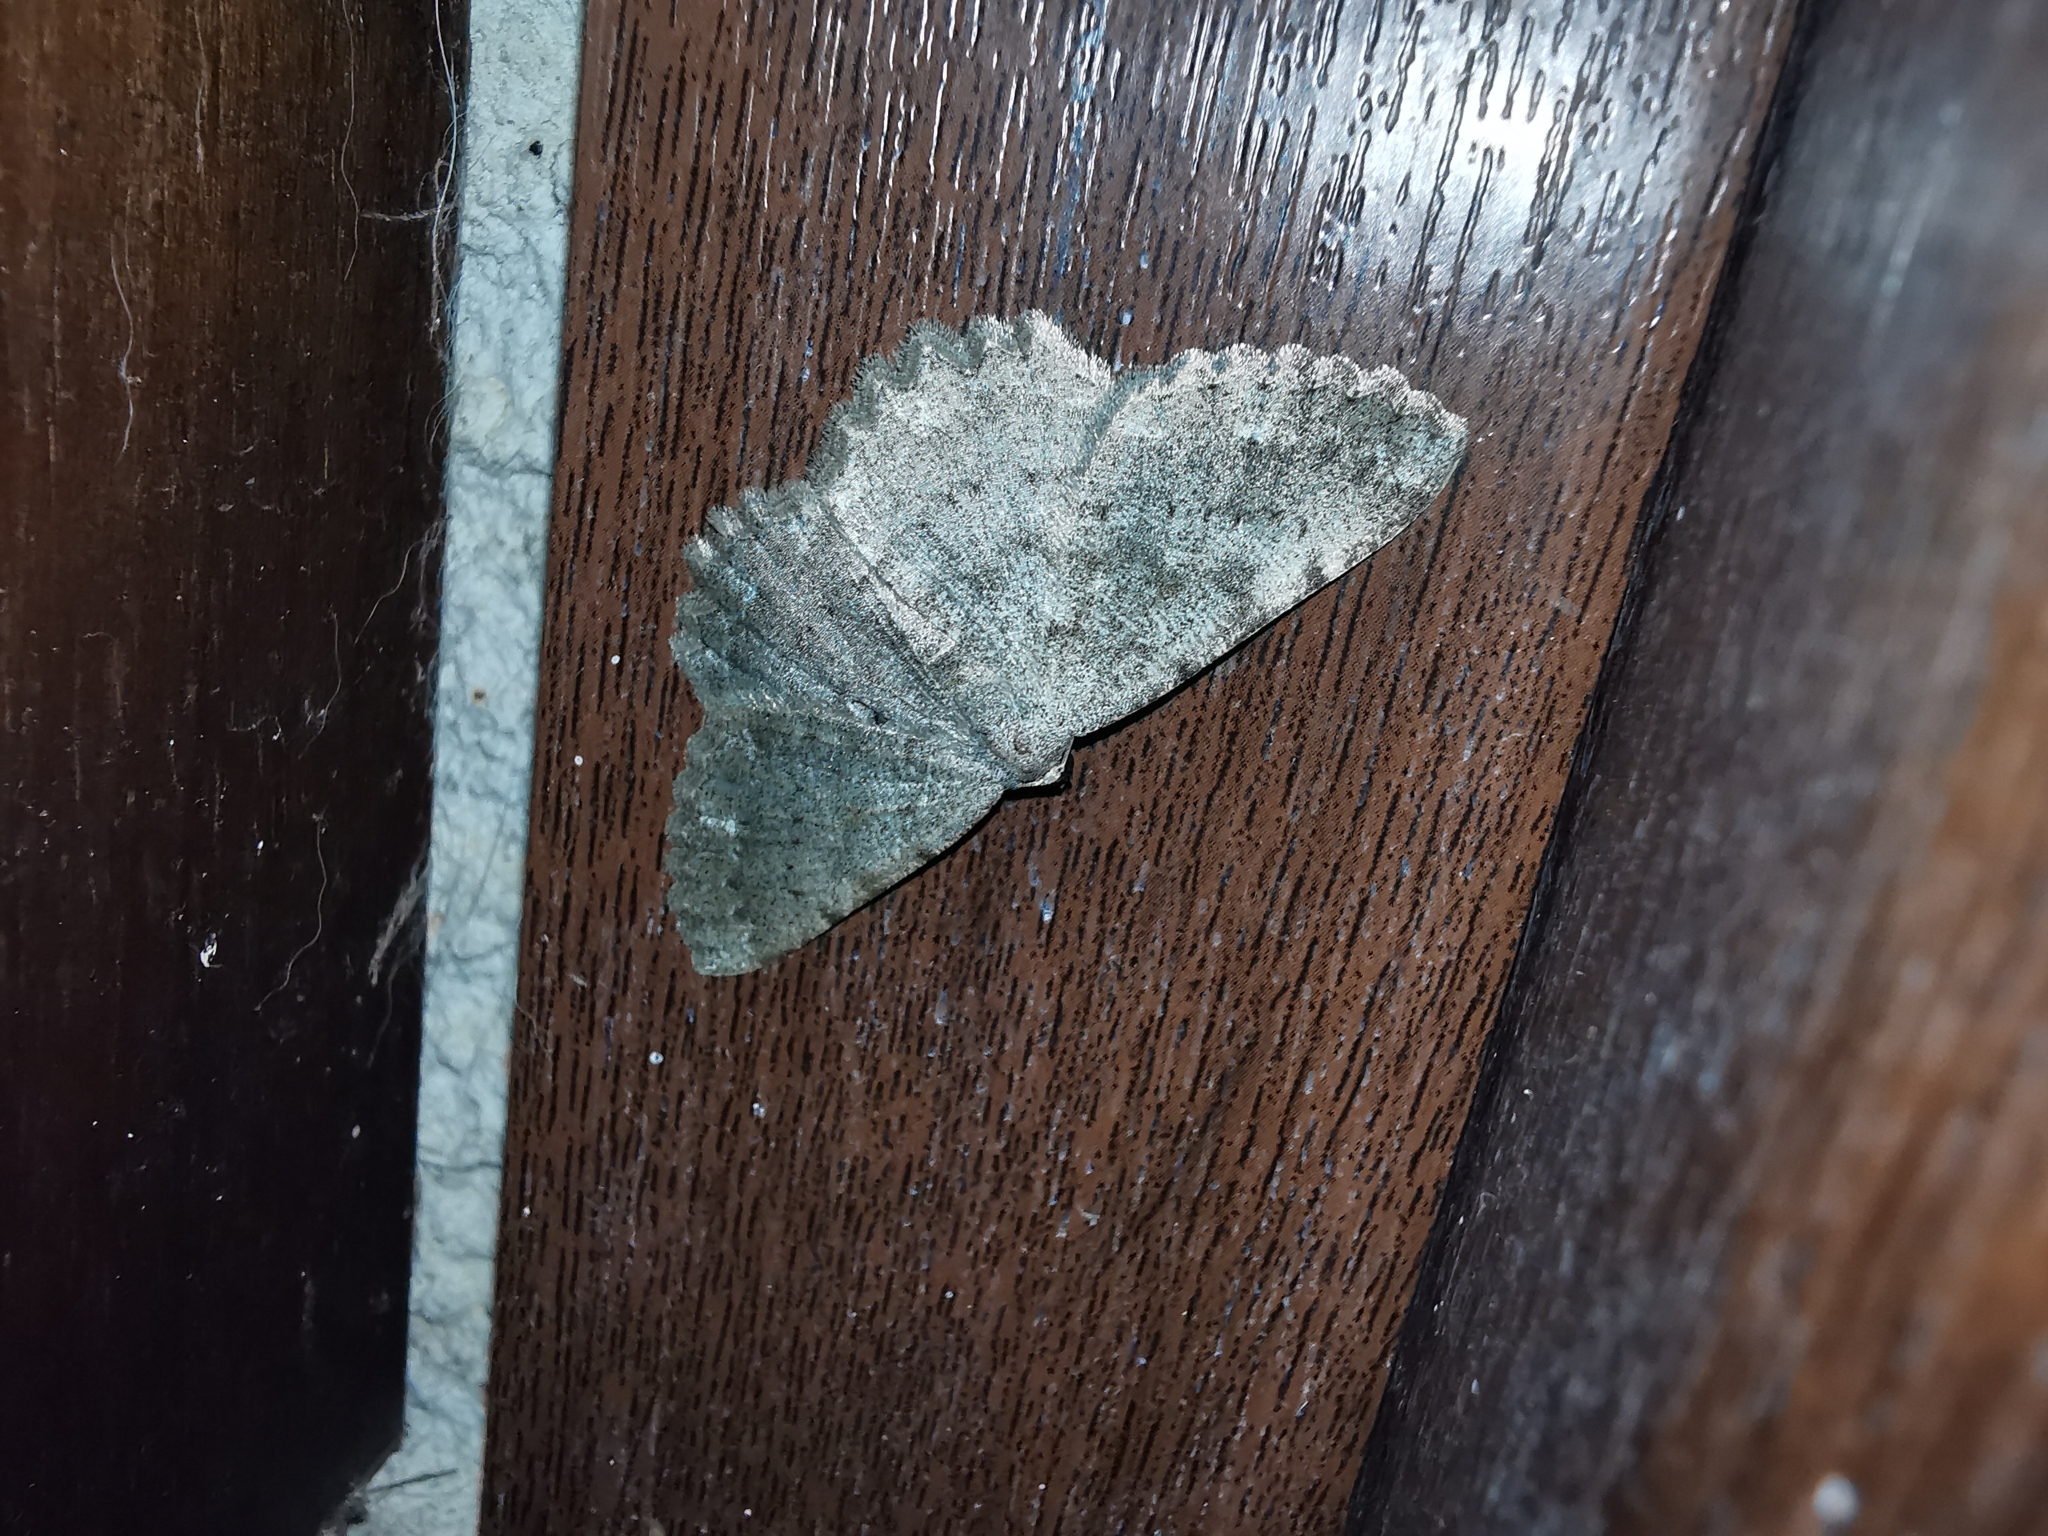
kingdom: Animalia
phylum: Arthropoda
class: Insecta
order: Lepidoptera
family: Geometridae
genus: Gnophos
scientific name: Gnophos sartata
